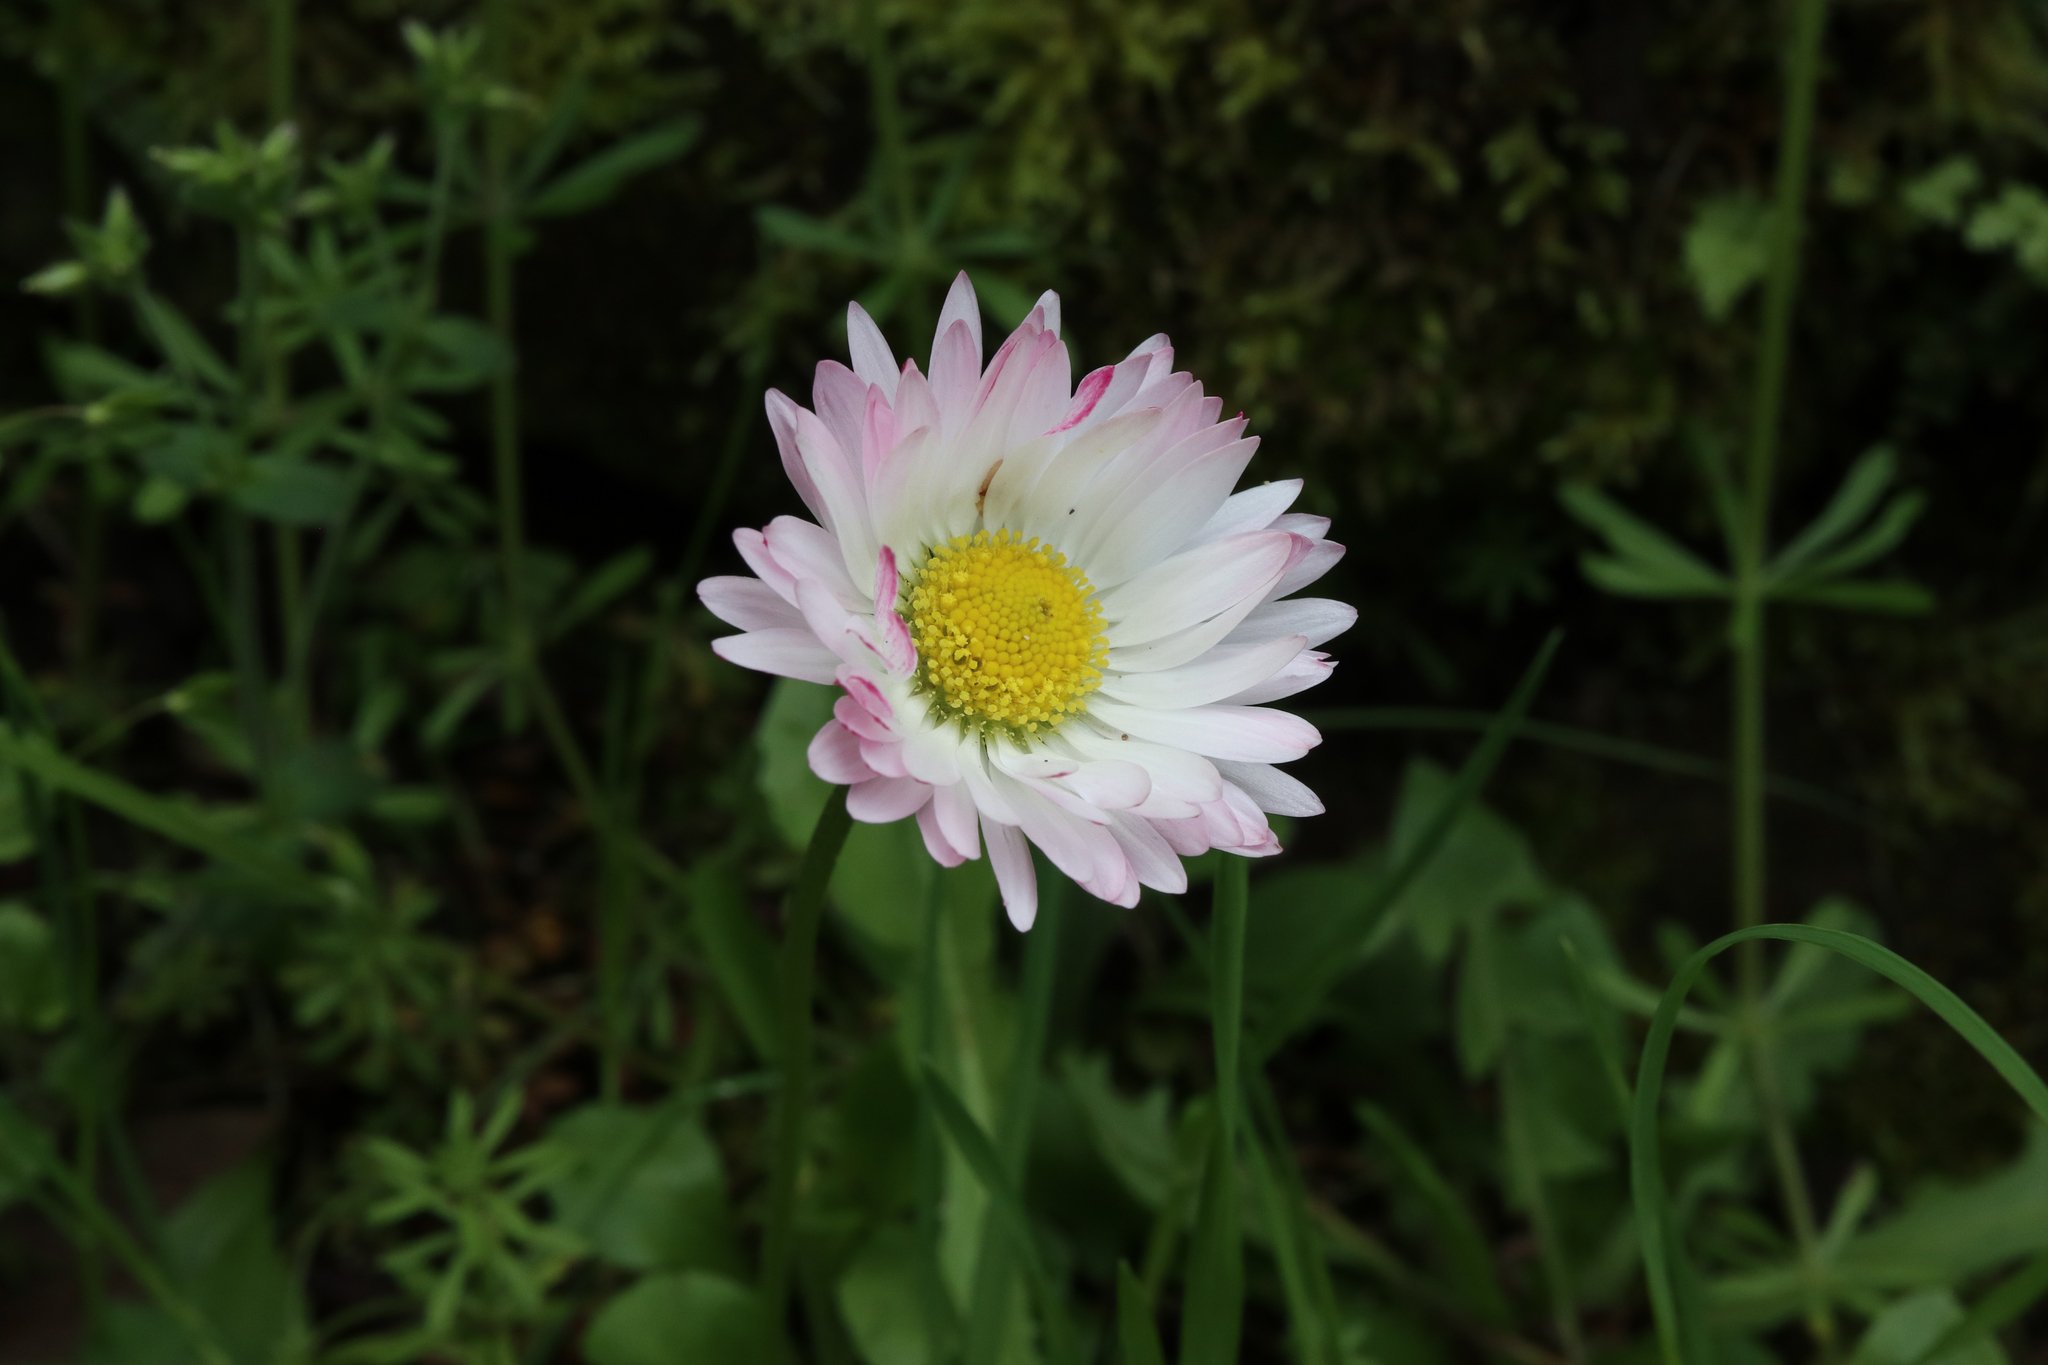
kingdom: Plantae
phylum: Tracheophyta
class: Magnoliopsida
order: Asterales
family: Asteraceae
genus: Bellis
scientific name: Bellis perennis
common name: Lawndaisy
